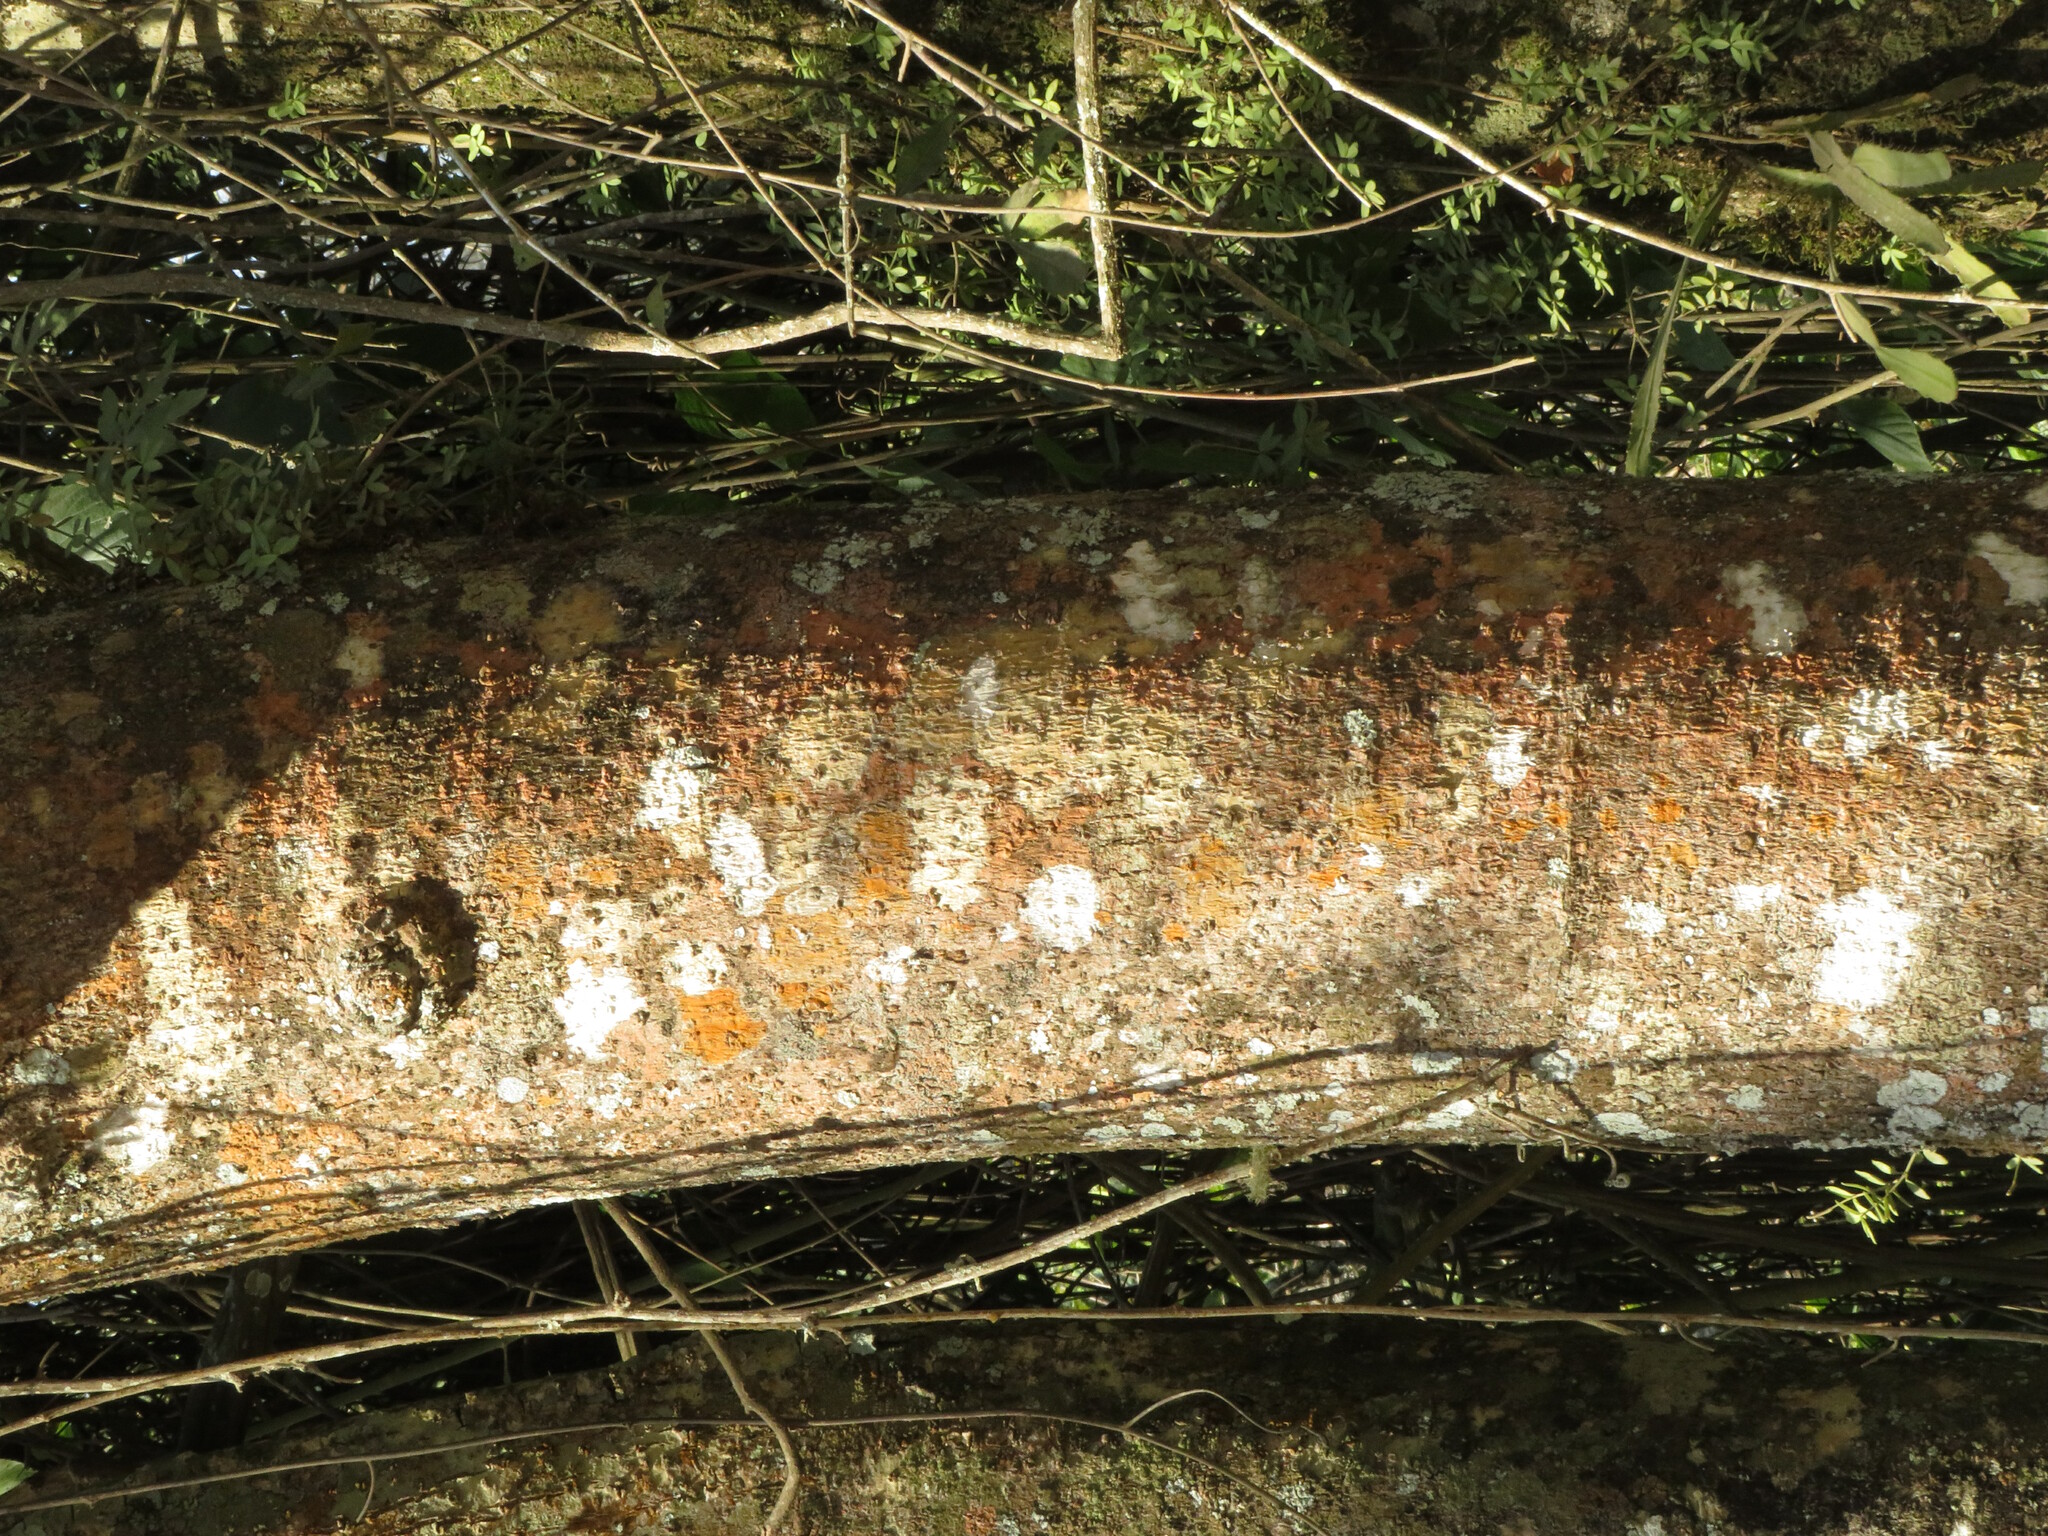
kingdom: Plantae
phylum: Tracheophyta
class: Magnoliopsida
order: Fabales
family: Fabaceae
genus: Enterolobium
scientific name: Enterolobium contortisiliquum
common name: Pacara earpod tree
